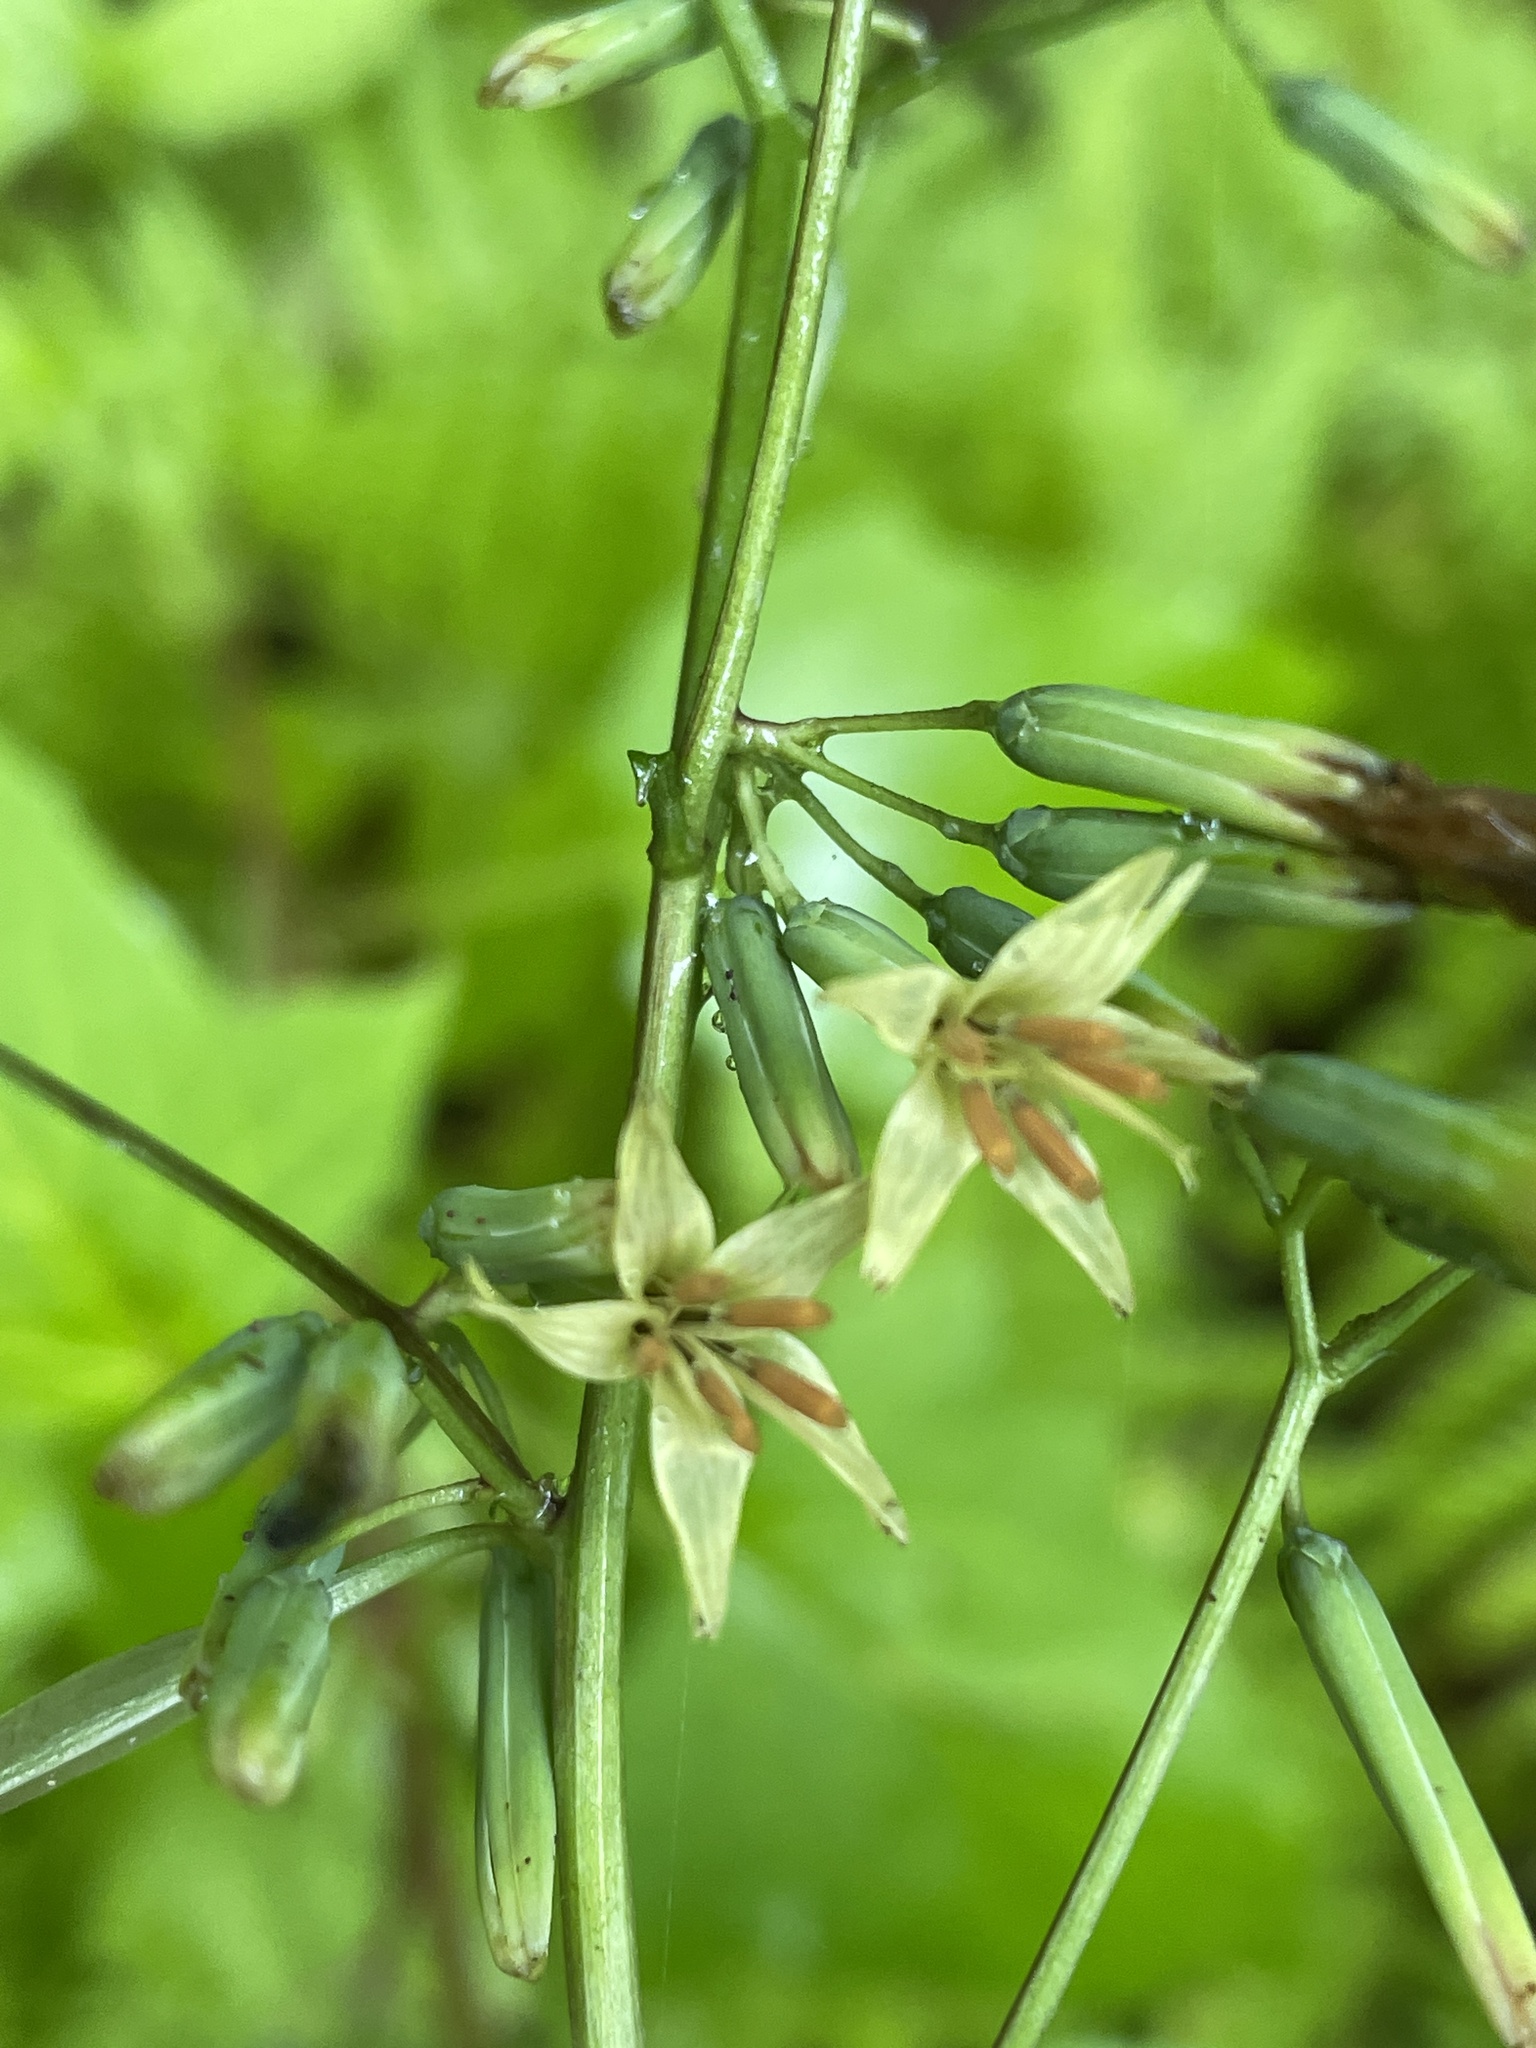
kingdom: Plantae
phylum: Tracheophyta
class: Magnoliopsida
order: Asterales
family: Asteraceae
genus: Nabalus
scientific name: Nabalus altissima
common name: Tall rattlesnakeroot
